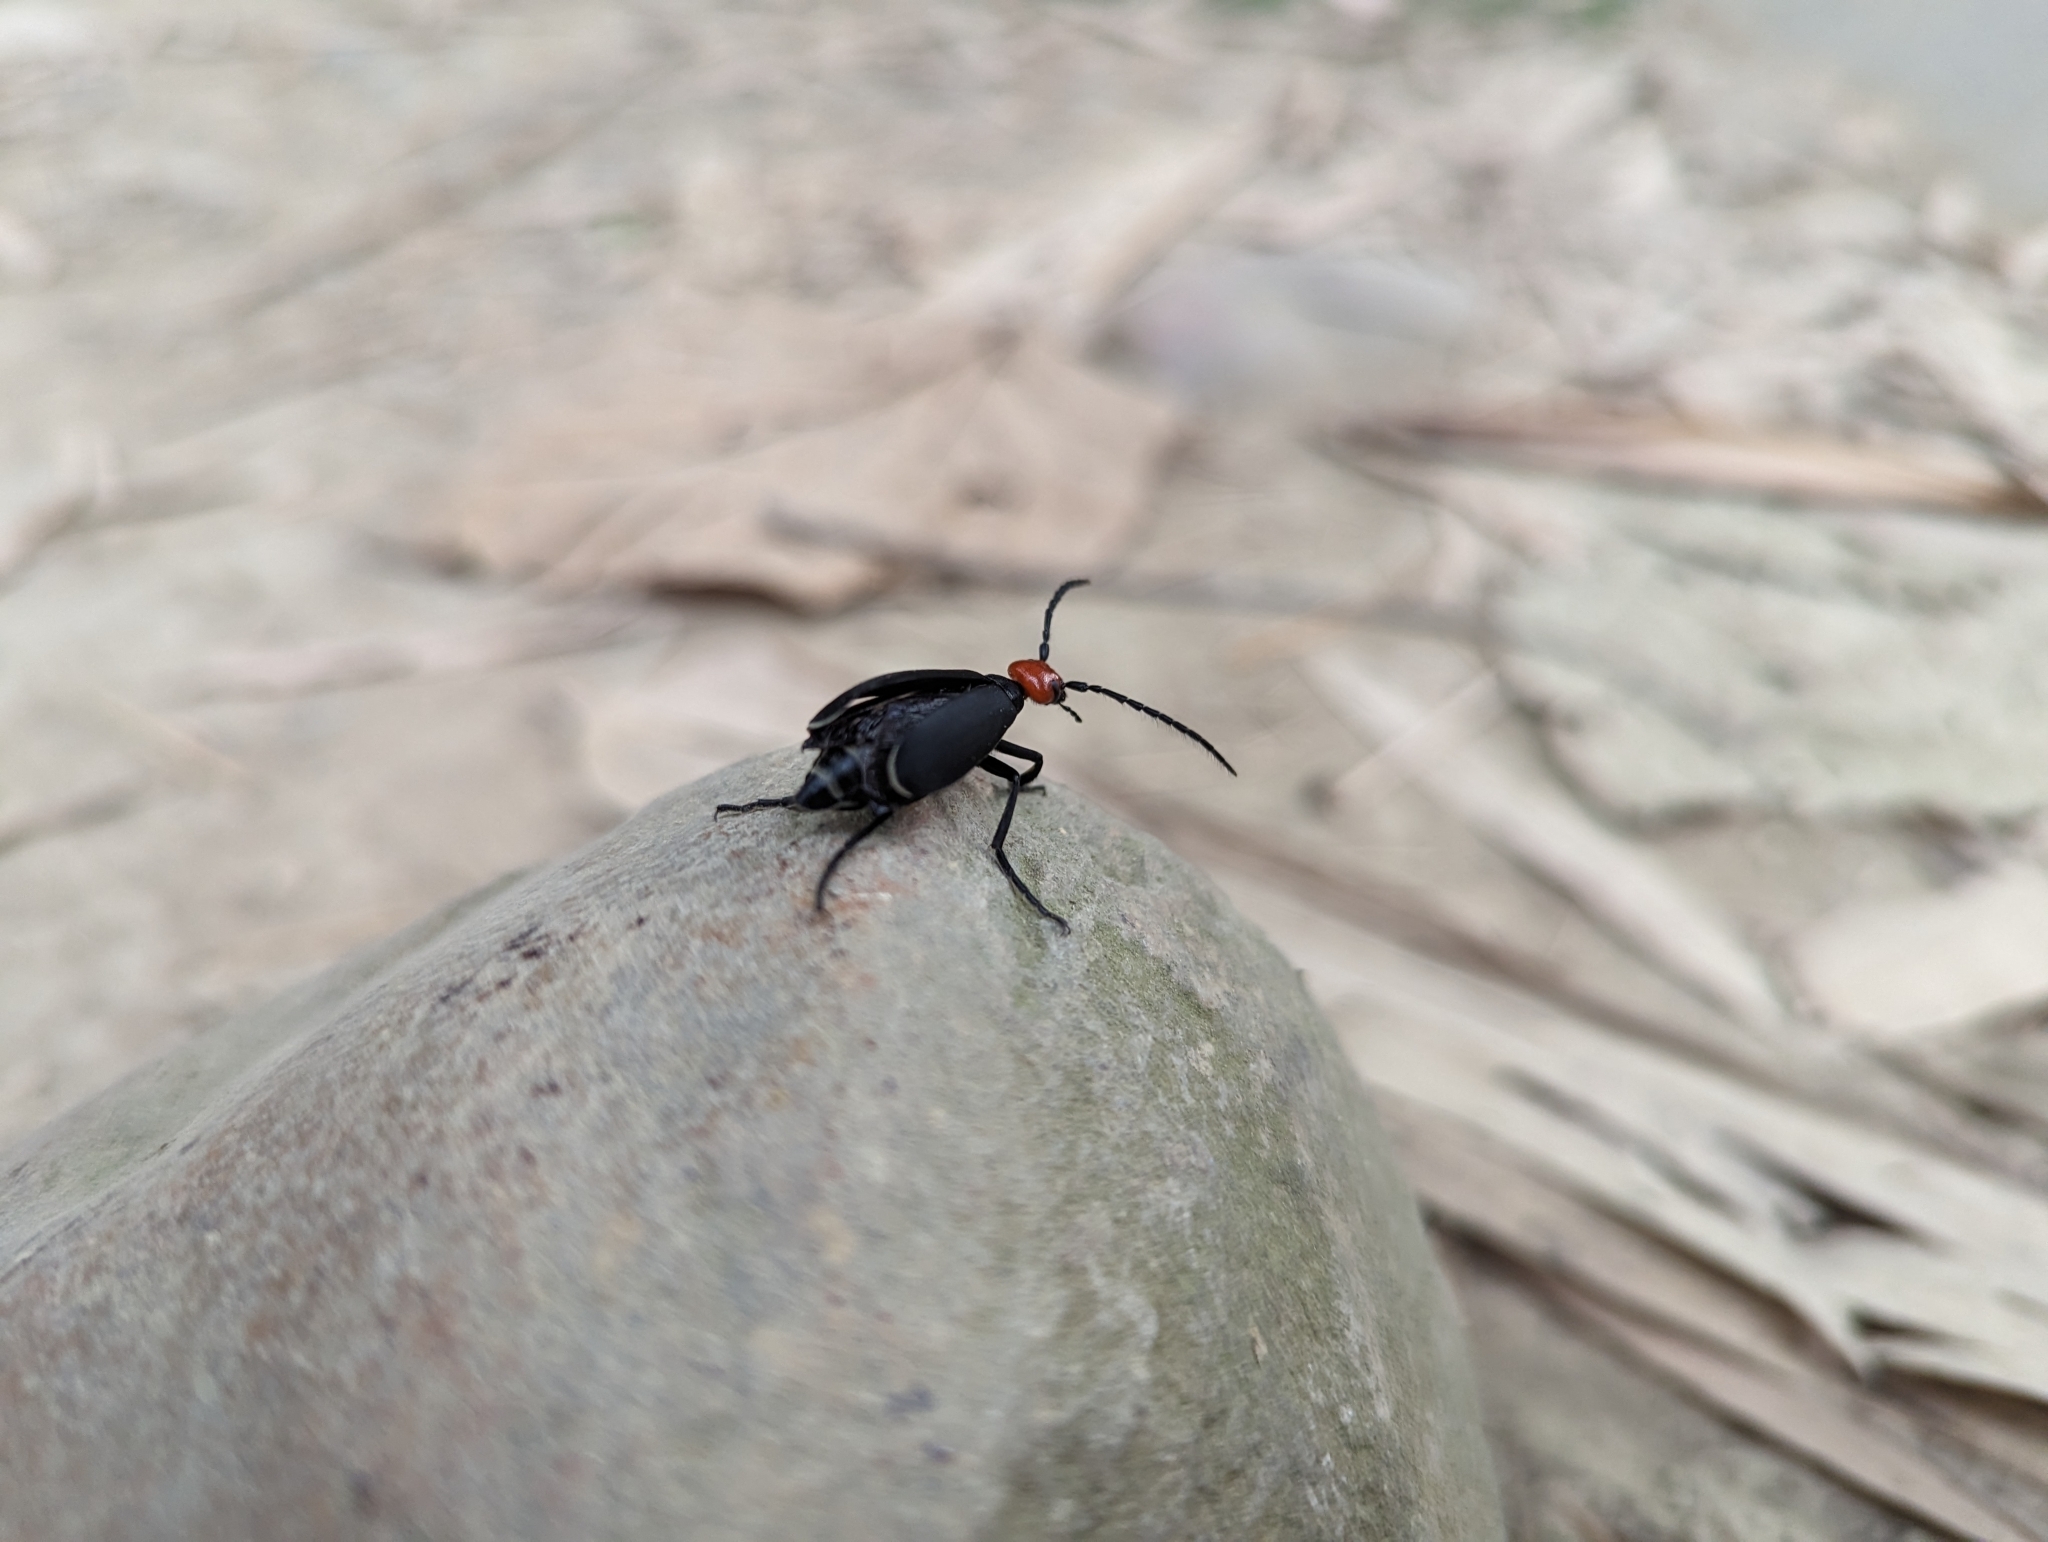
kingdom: Animalia
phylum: Arthropoda
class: Insecta
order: Coleoptera
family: Meloidae
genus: Epicauta
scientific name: Epicauta hirticornis
